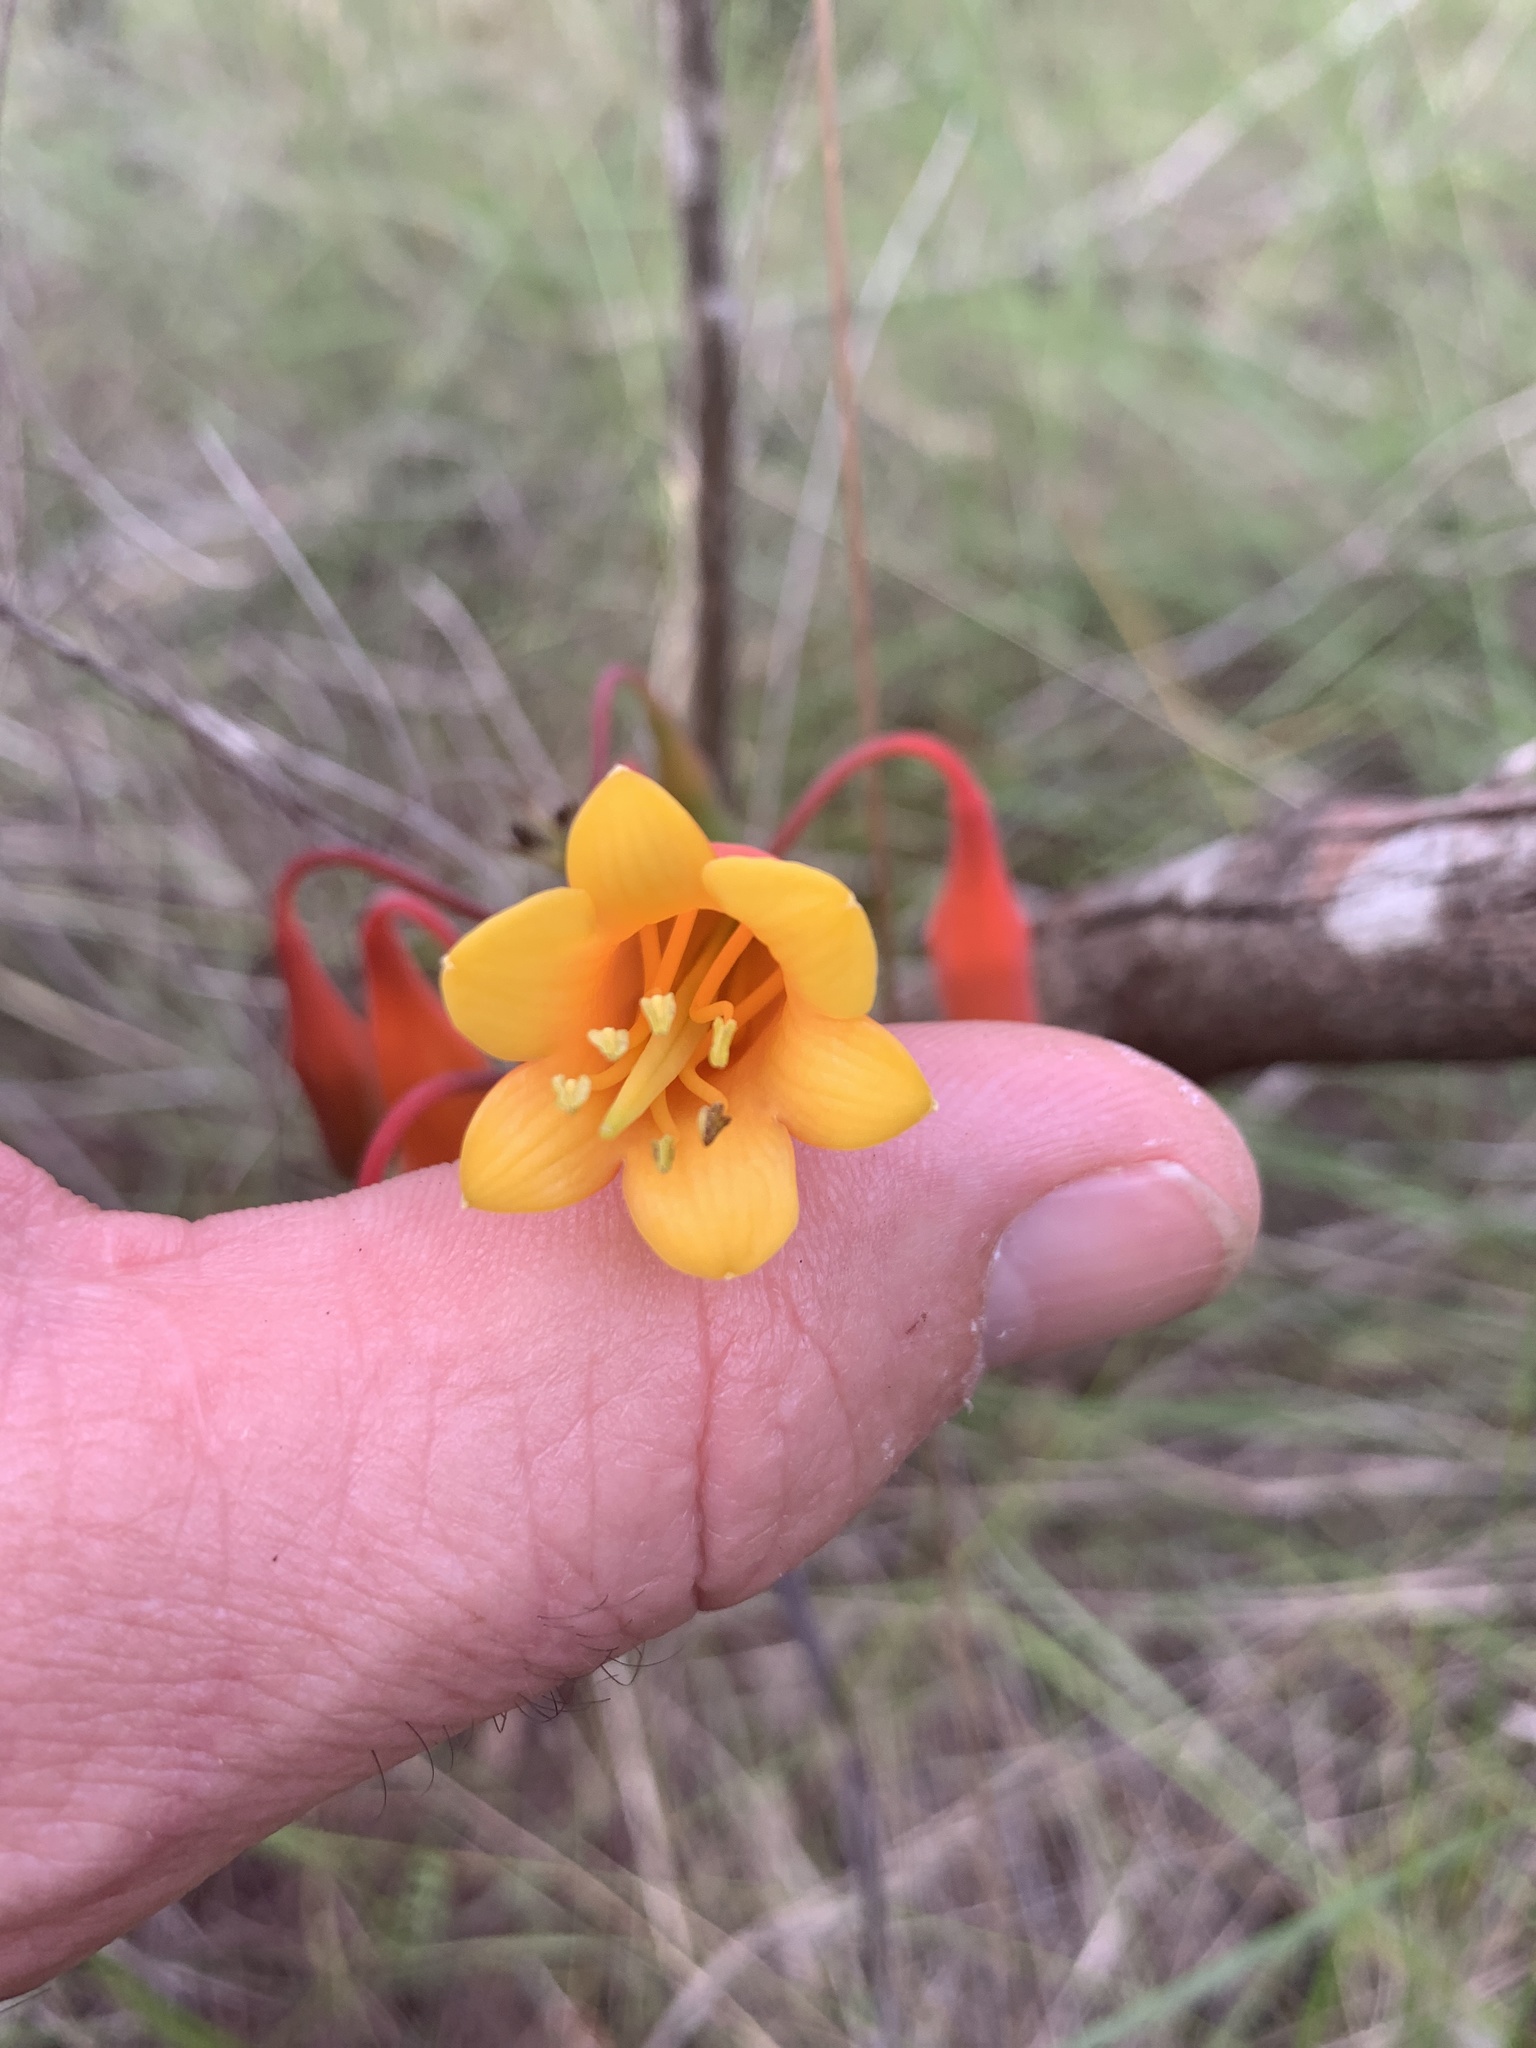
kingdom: Plantae
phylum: Tracheophyta
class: Liliopsida
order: Asparagales
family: Blandfordiaceae
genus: Blandfordia
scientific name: Blandfordia nobilis
